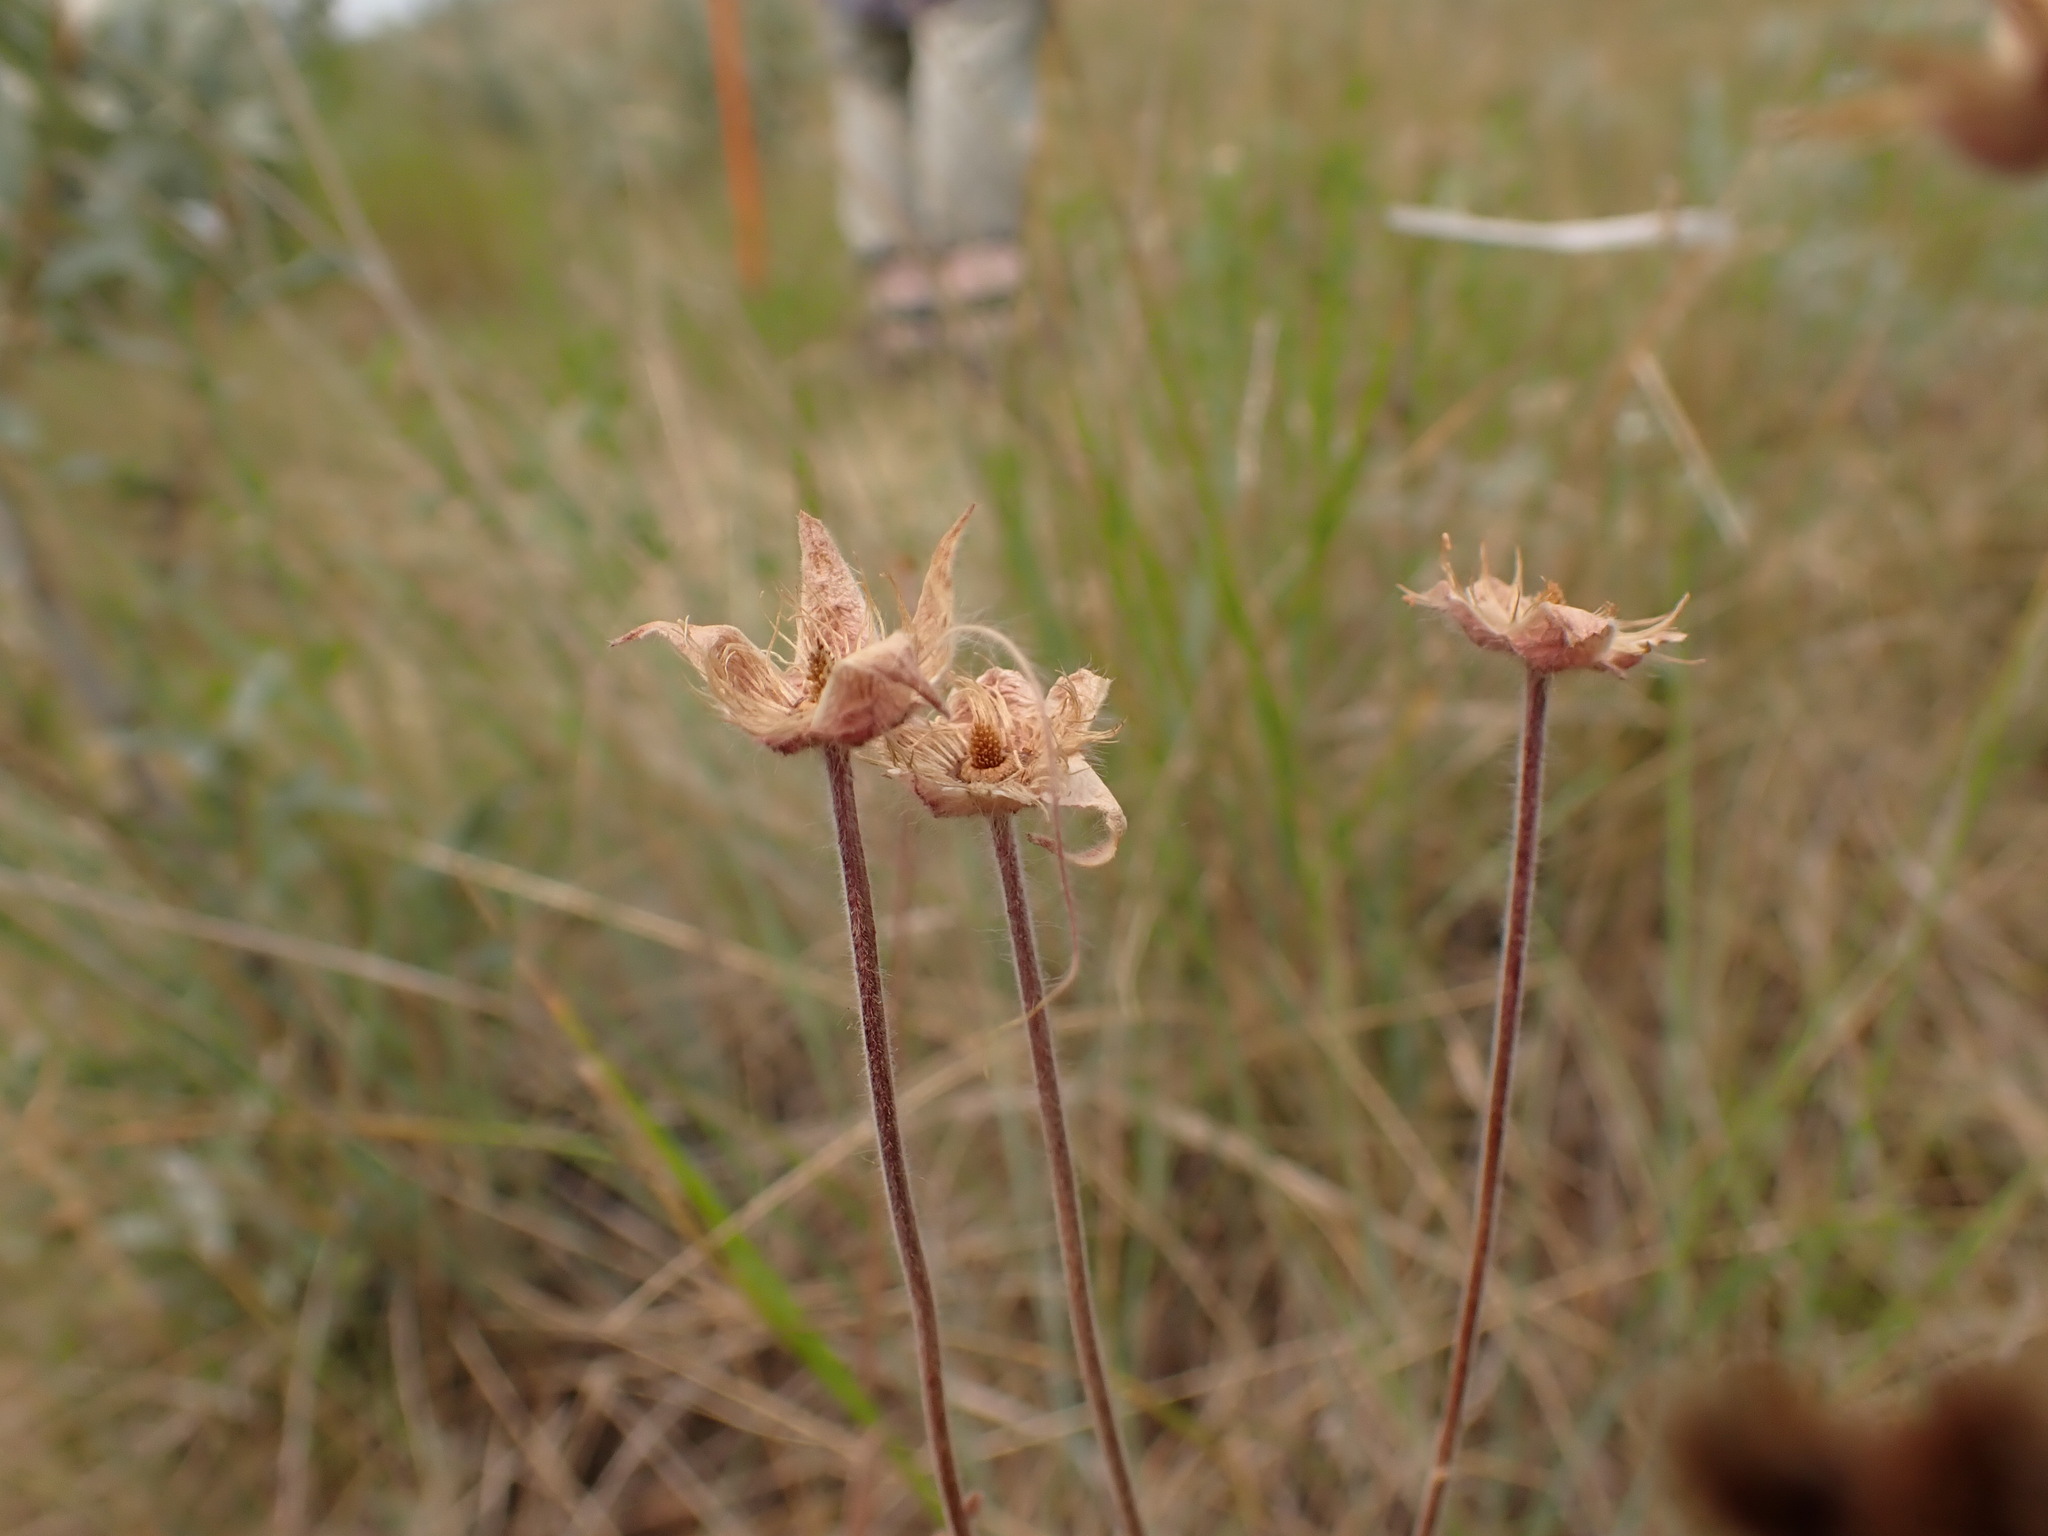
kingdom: Plantae
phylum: Tracheophyta
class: Magnoliopsida
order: Rosales
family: Rosaceae
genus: Geum
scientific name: Geum triflorum
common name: Old man's whiskers
